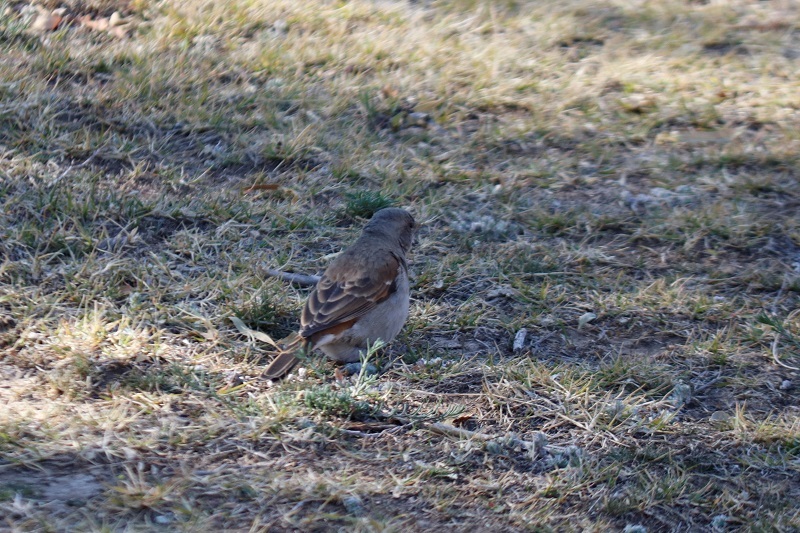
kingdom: Animalia
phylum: Chordata
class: Aves
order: Passeriformes
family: Passeridae
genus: Passer
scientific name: Passer diffusus
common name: Southern grey-headed sparrow
